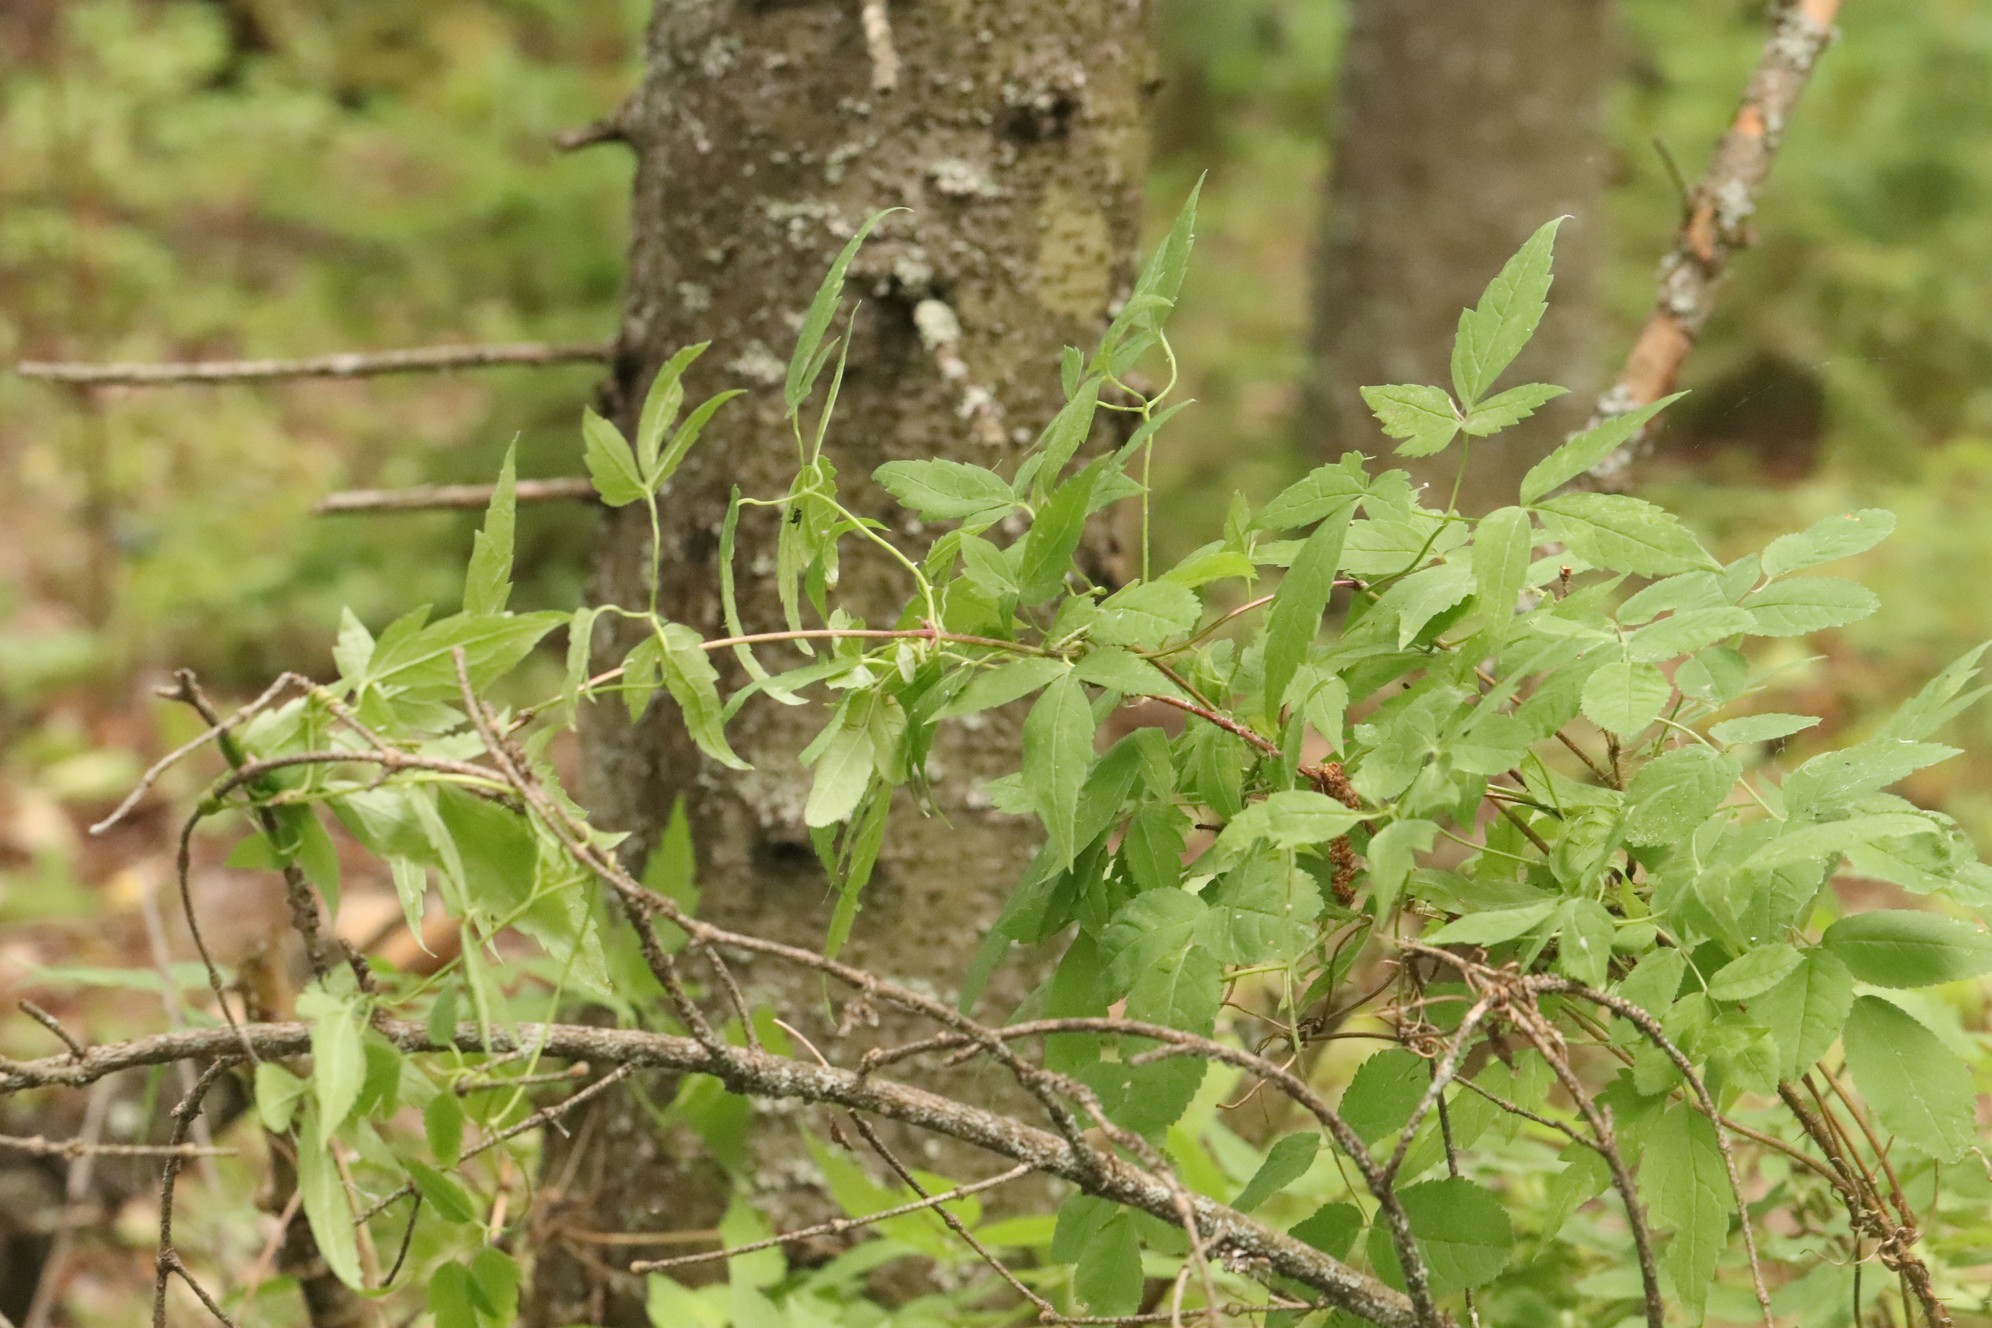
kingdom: Plantae
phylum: Tracheophyta
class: Magnoliopsida
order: Ranunculales
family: Ranunculaceae
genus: Clematis
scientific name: Clematis sibirica
